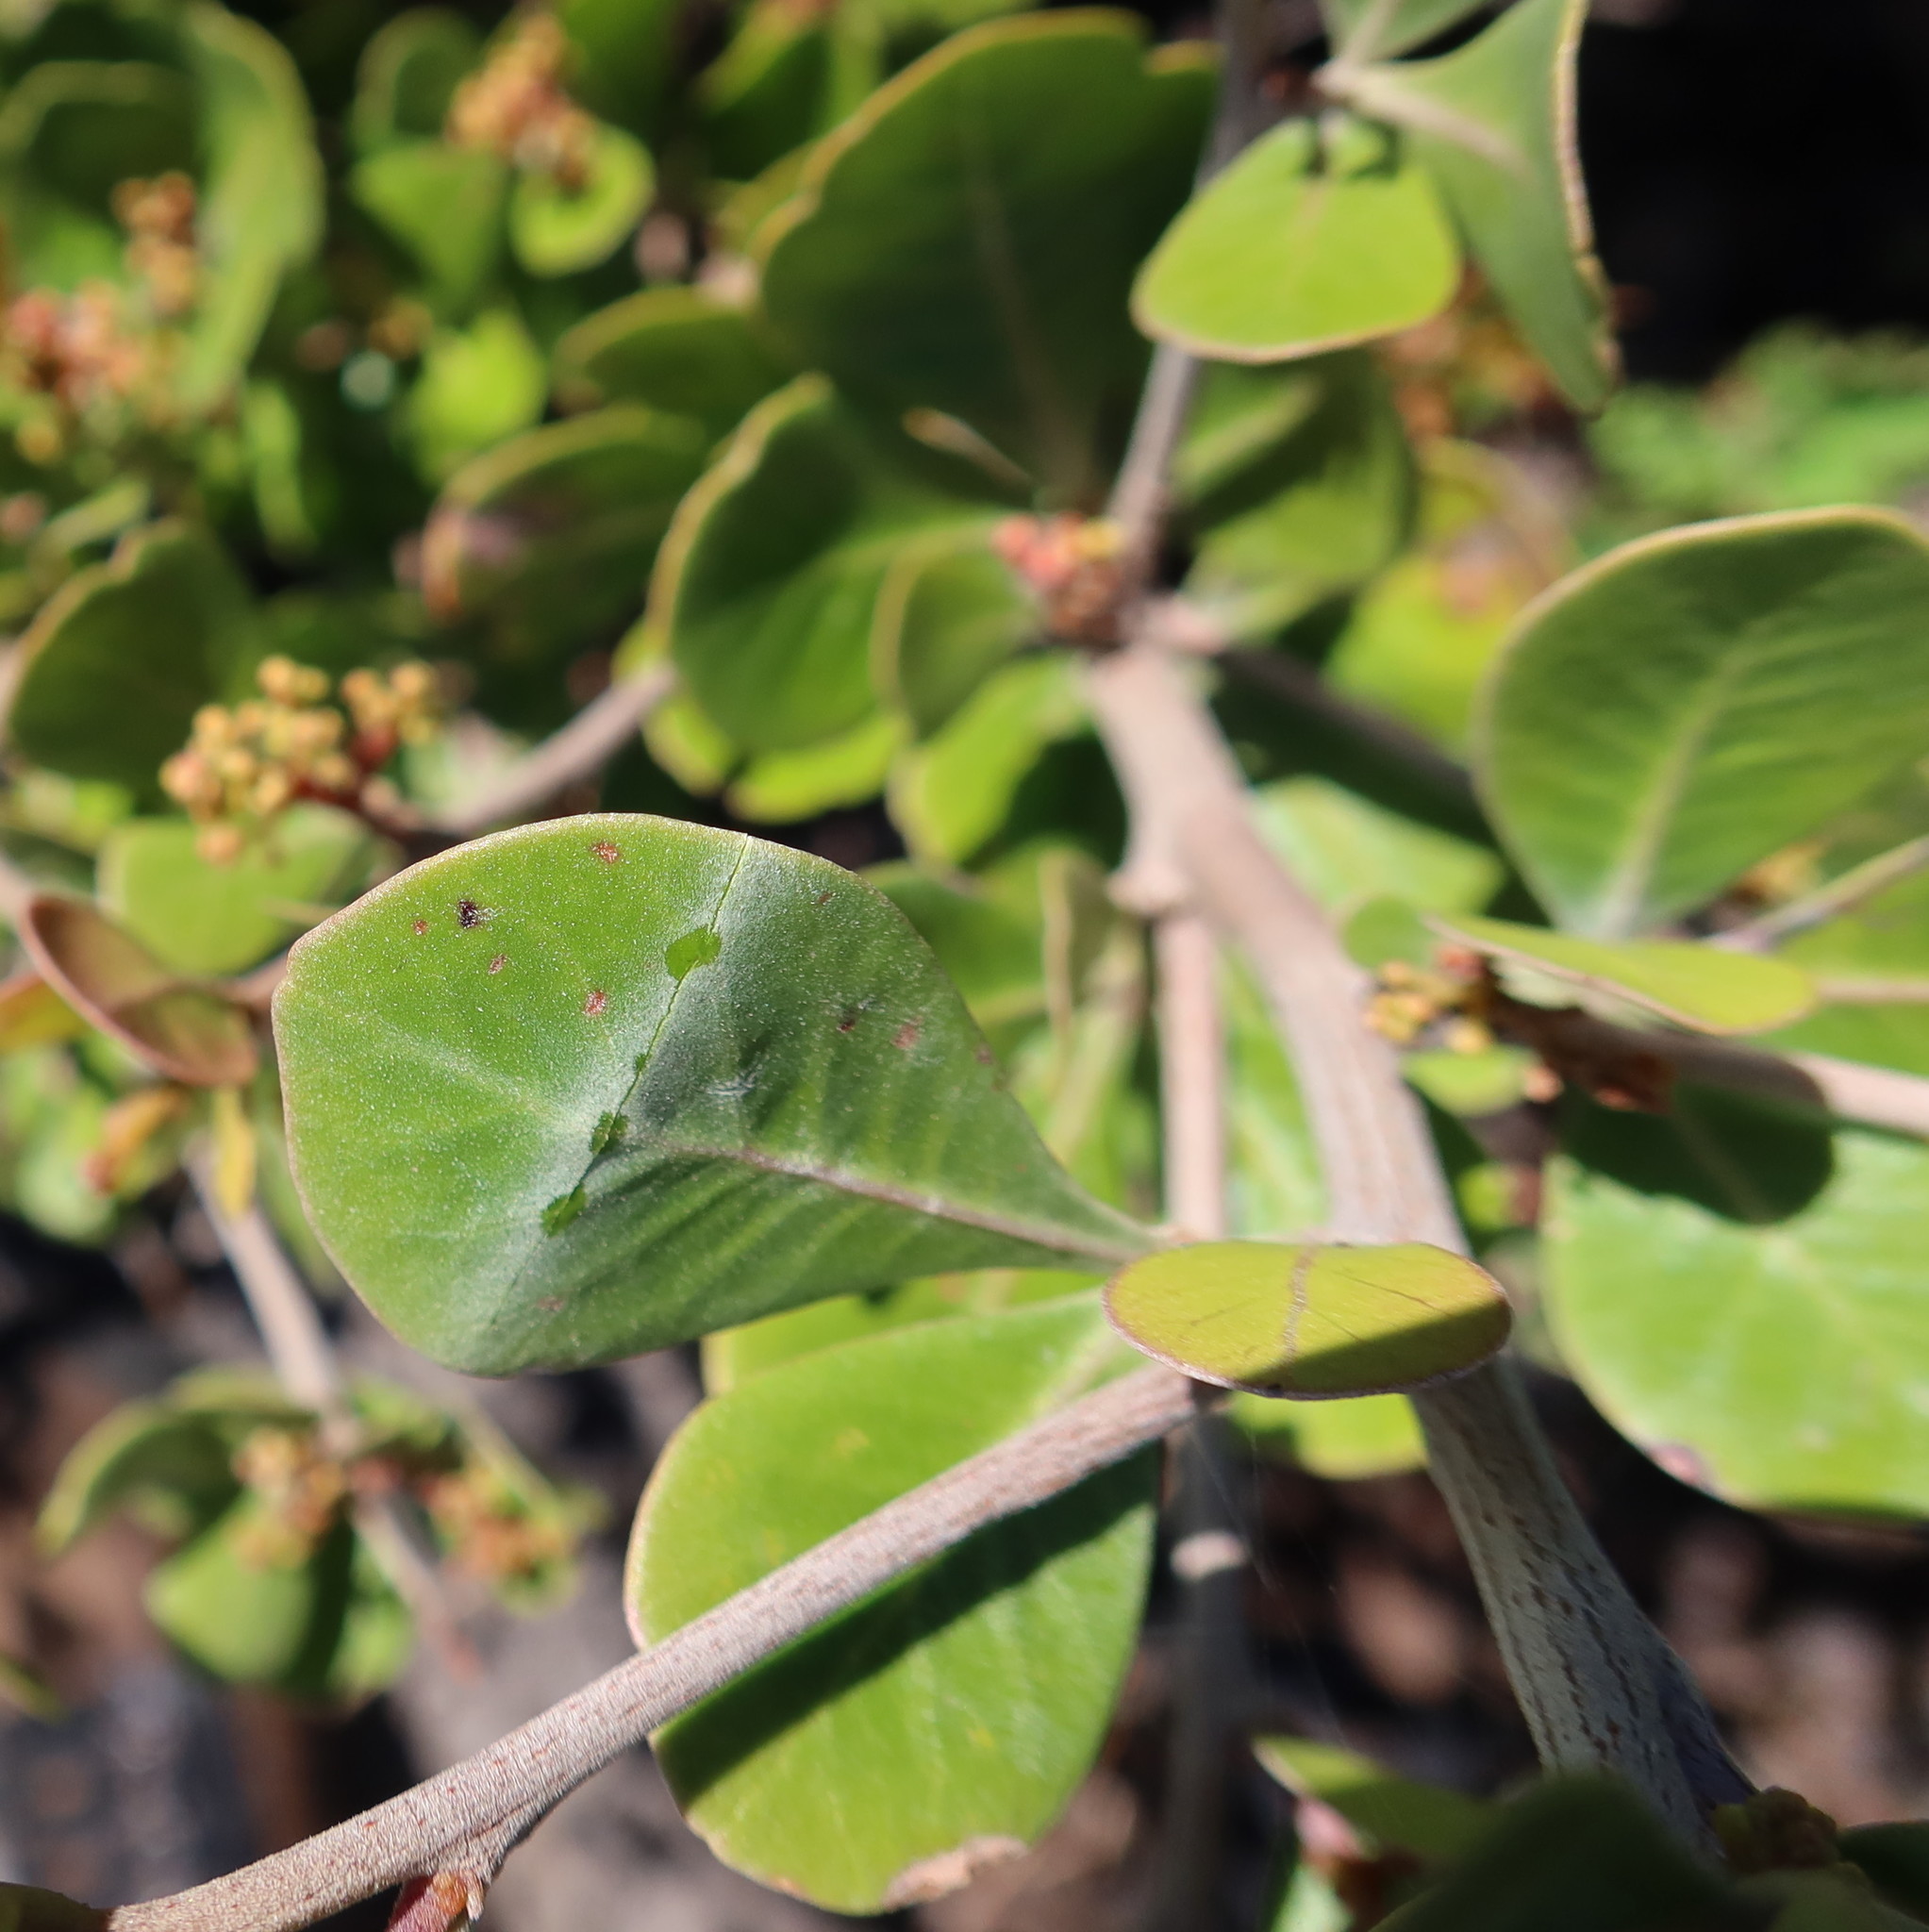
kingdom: Plantae
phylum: Tracheophyta
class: Magnoliopsida
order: Sapindales
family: Anacardiaceae
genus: Searsia
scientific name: Searsia lucida
